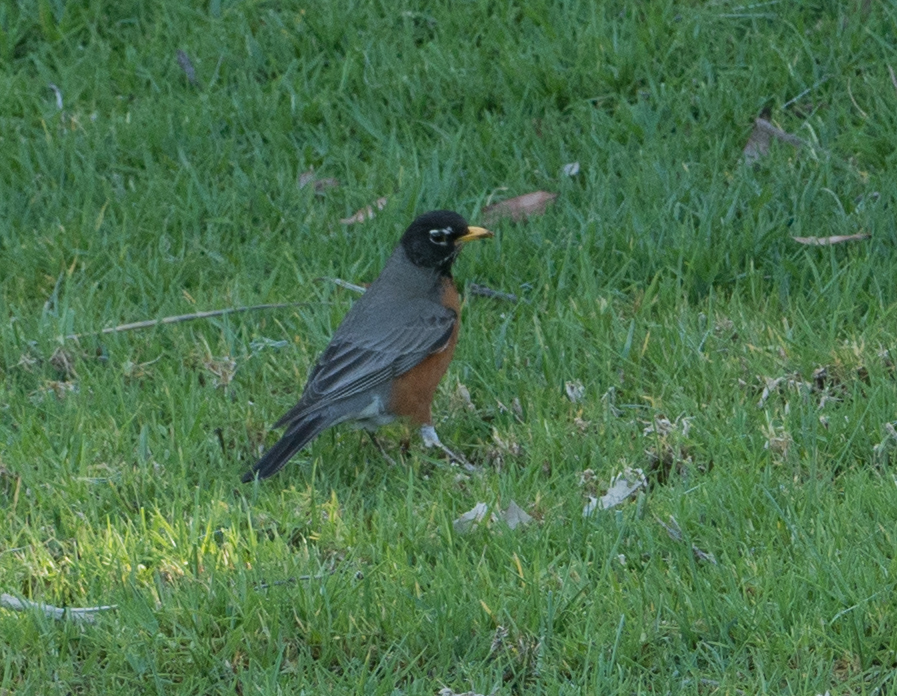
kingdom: Animalia
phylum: Chordata
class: Aves
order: Passeriformes
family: Turdidae
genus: Turdus
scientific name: Turdus migratorius
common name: American robin
